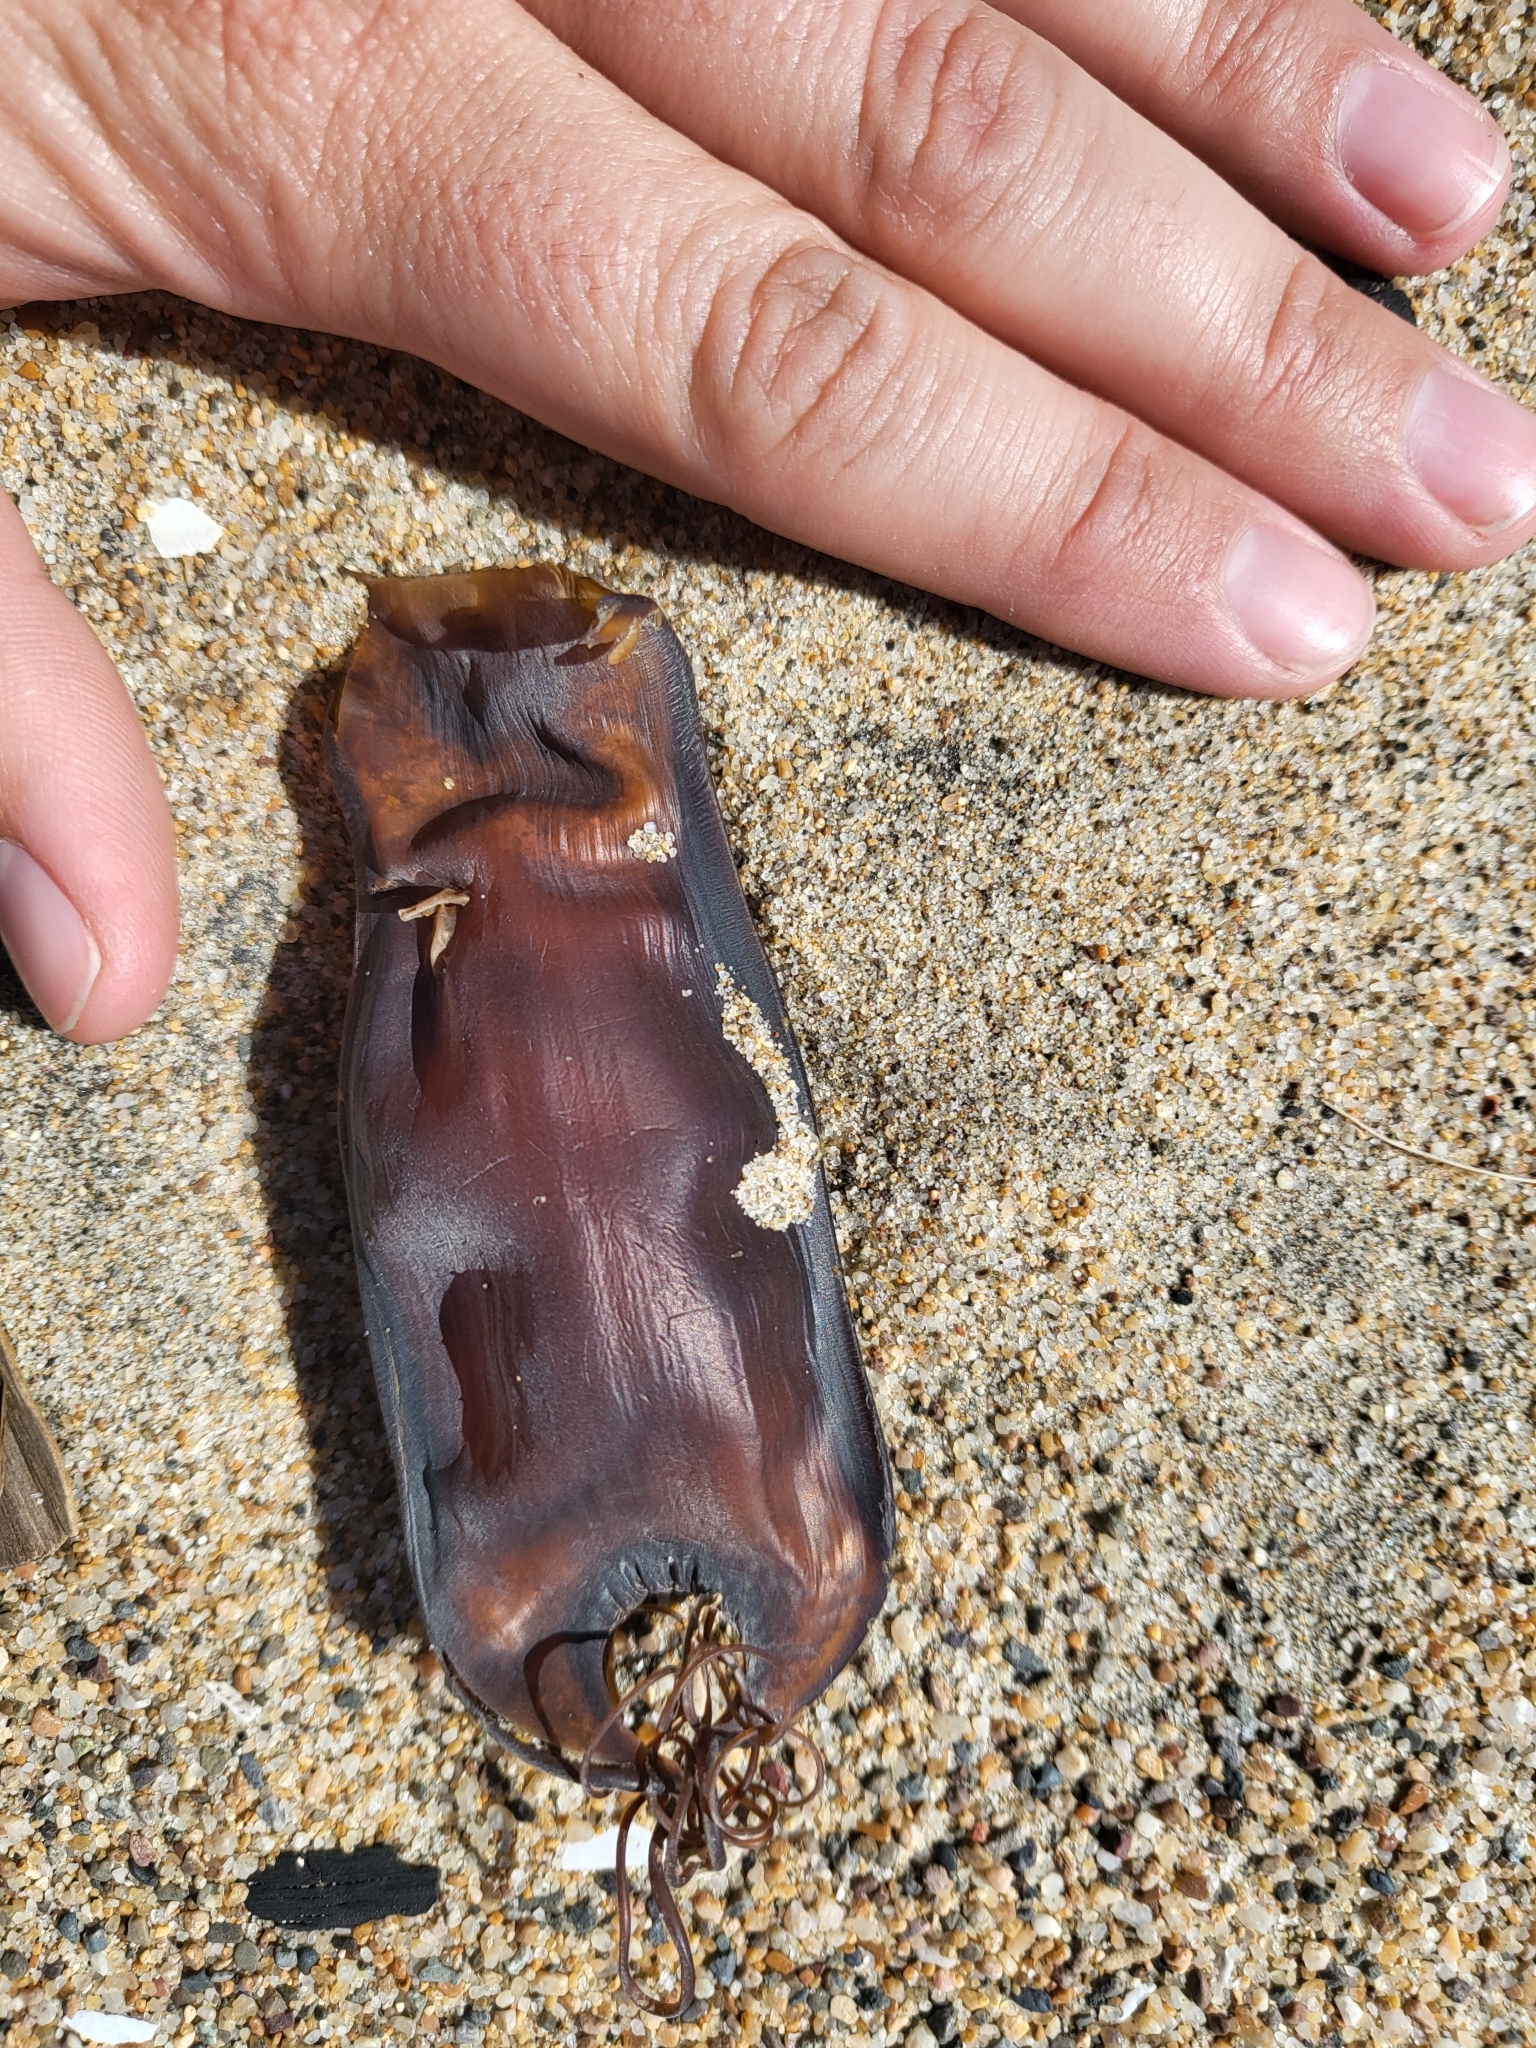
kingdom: Animalia
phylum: Chordata
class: Elasmobranchii
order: Carcharhiniformes
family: Scyliorhinidae
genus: Cephaloscyllium
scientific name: Cephaloscyllium ventriosum
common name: Swell shark
